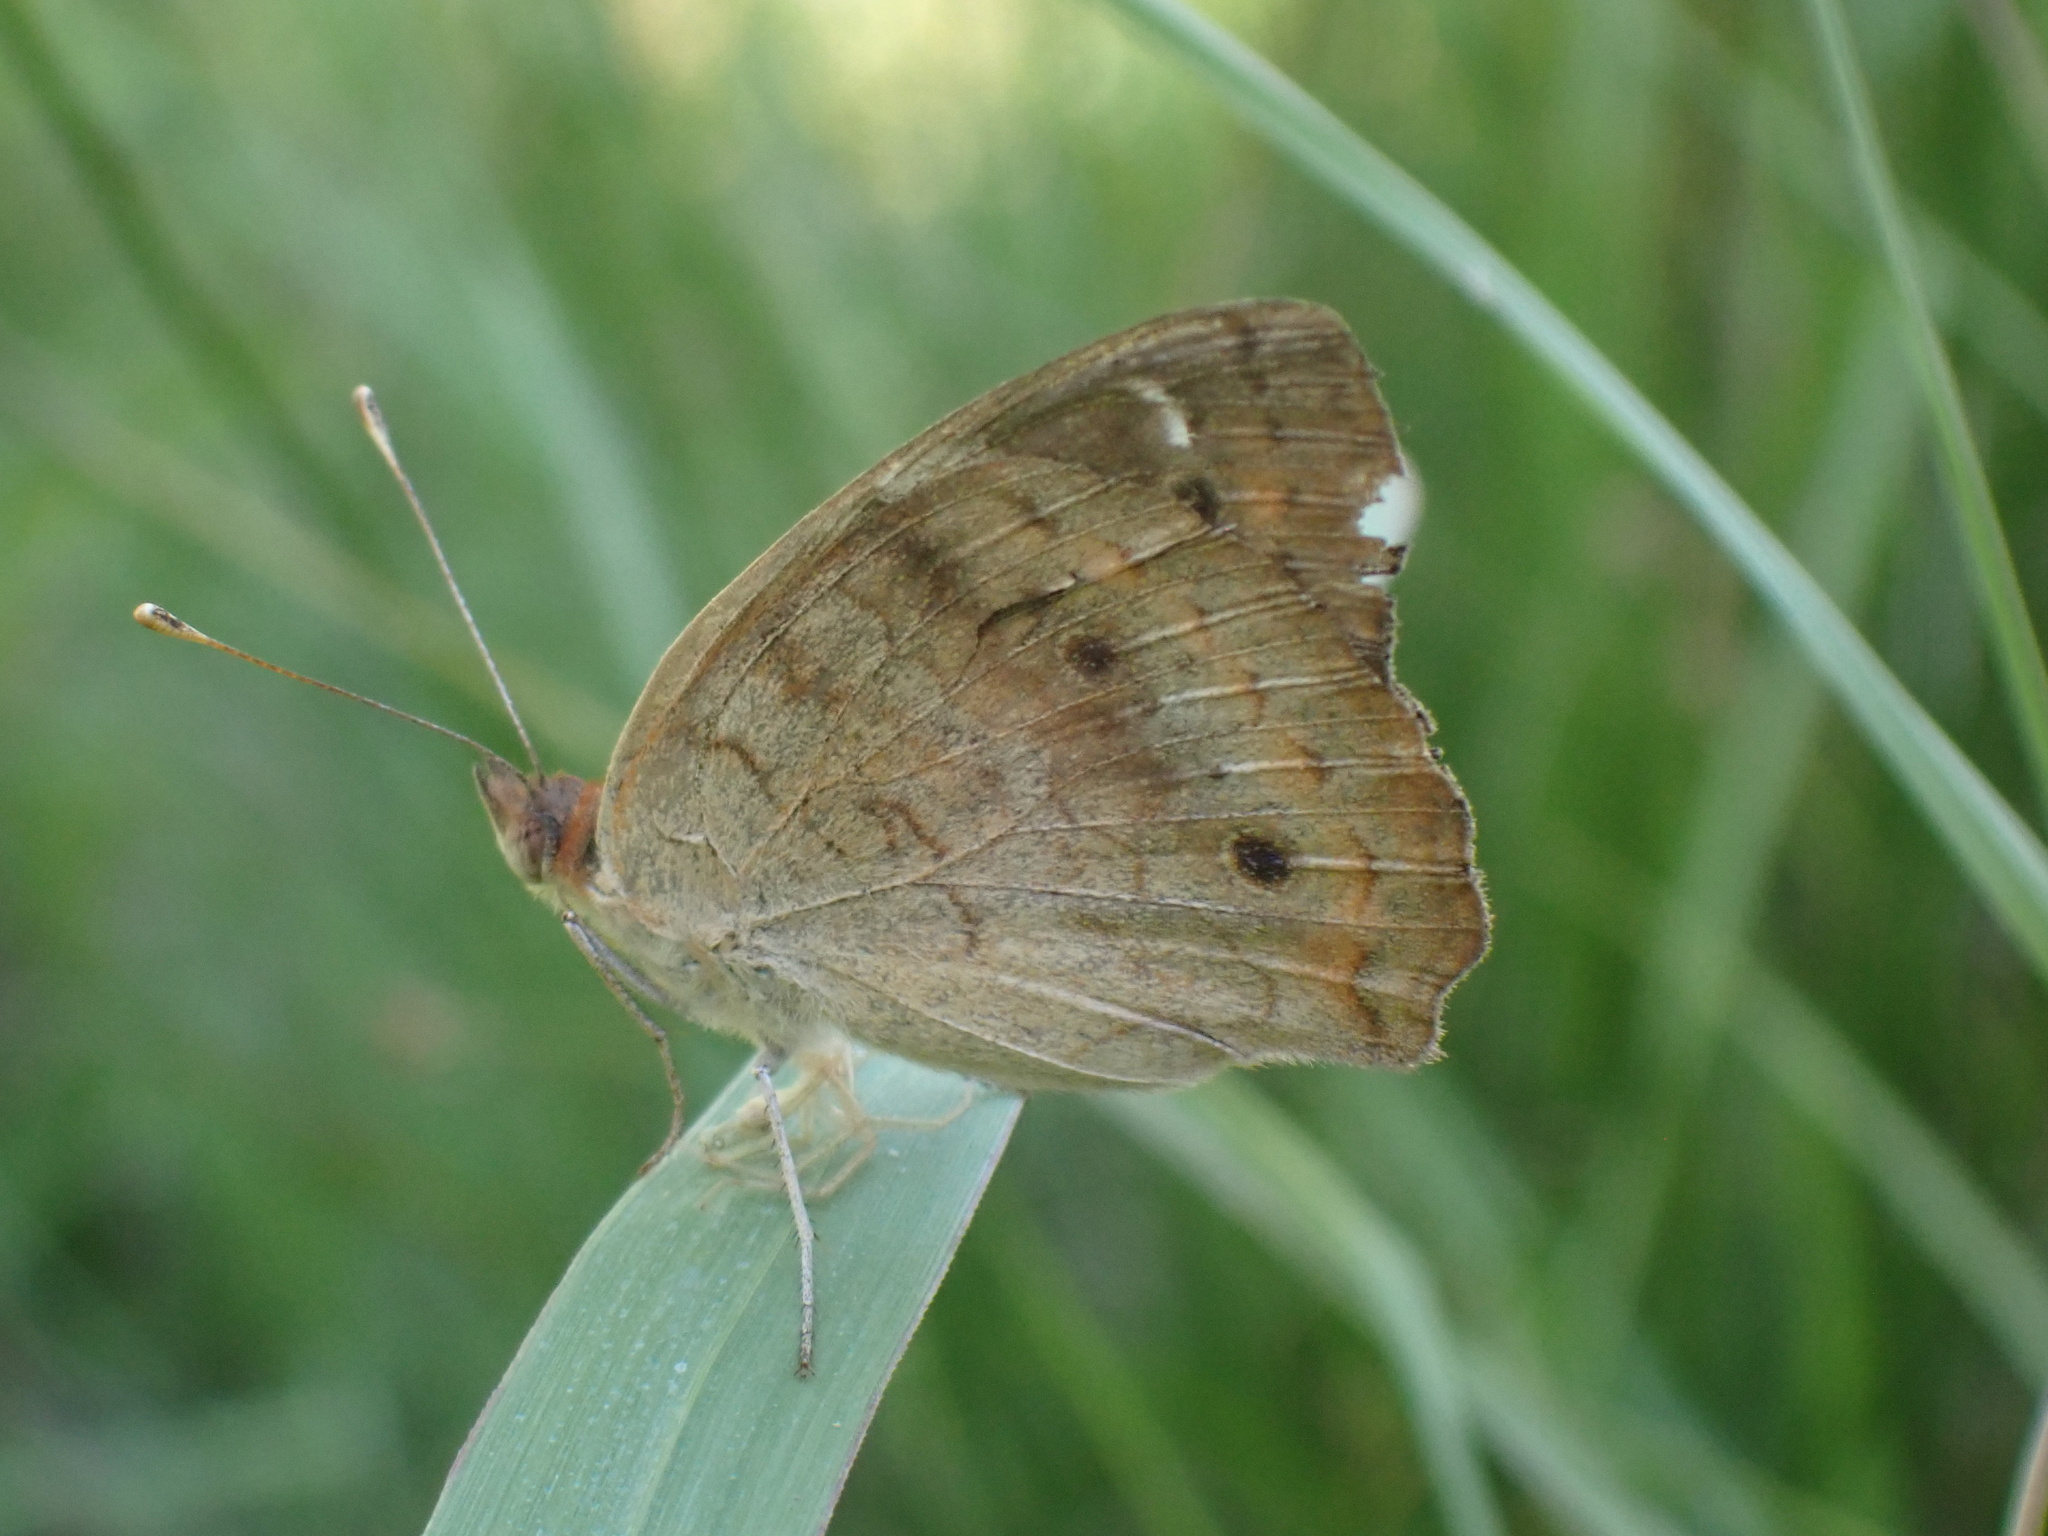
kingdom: Animalia
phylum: Arthropoda
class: Insecta
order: Lepidoptera
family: Nymphalidae
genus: Junonia
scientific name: Junonia coenia
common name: Common buckeye
